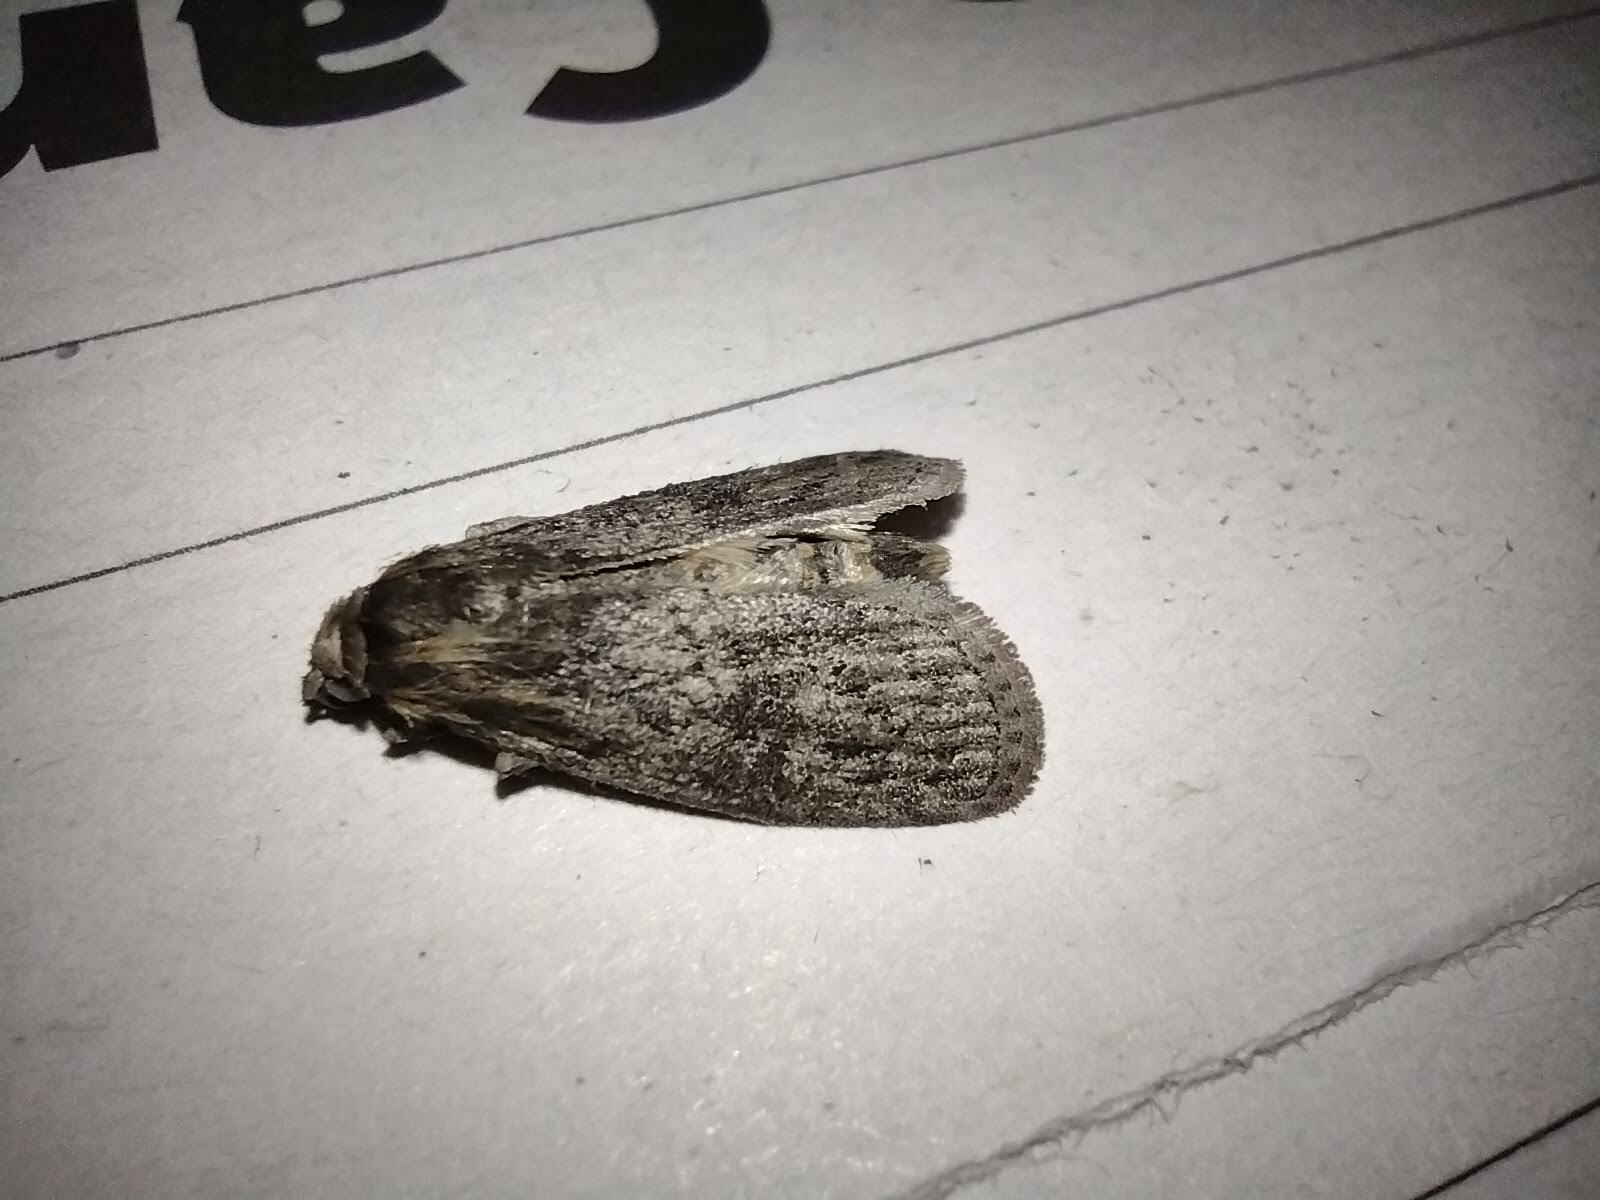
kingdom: Animalia
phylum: Arthropoda
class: Insecta
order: Lepidoptera
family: Pyralidae
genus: Trachylepidia
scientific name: Trachylepidia fructicassiella
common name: Cassia seed borer
